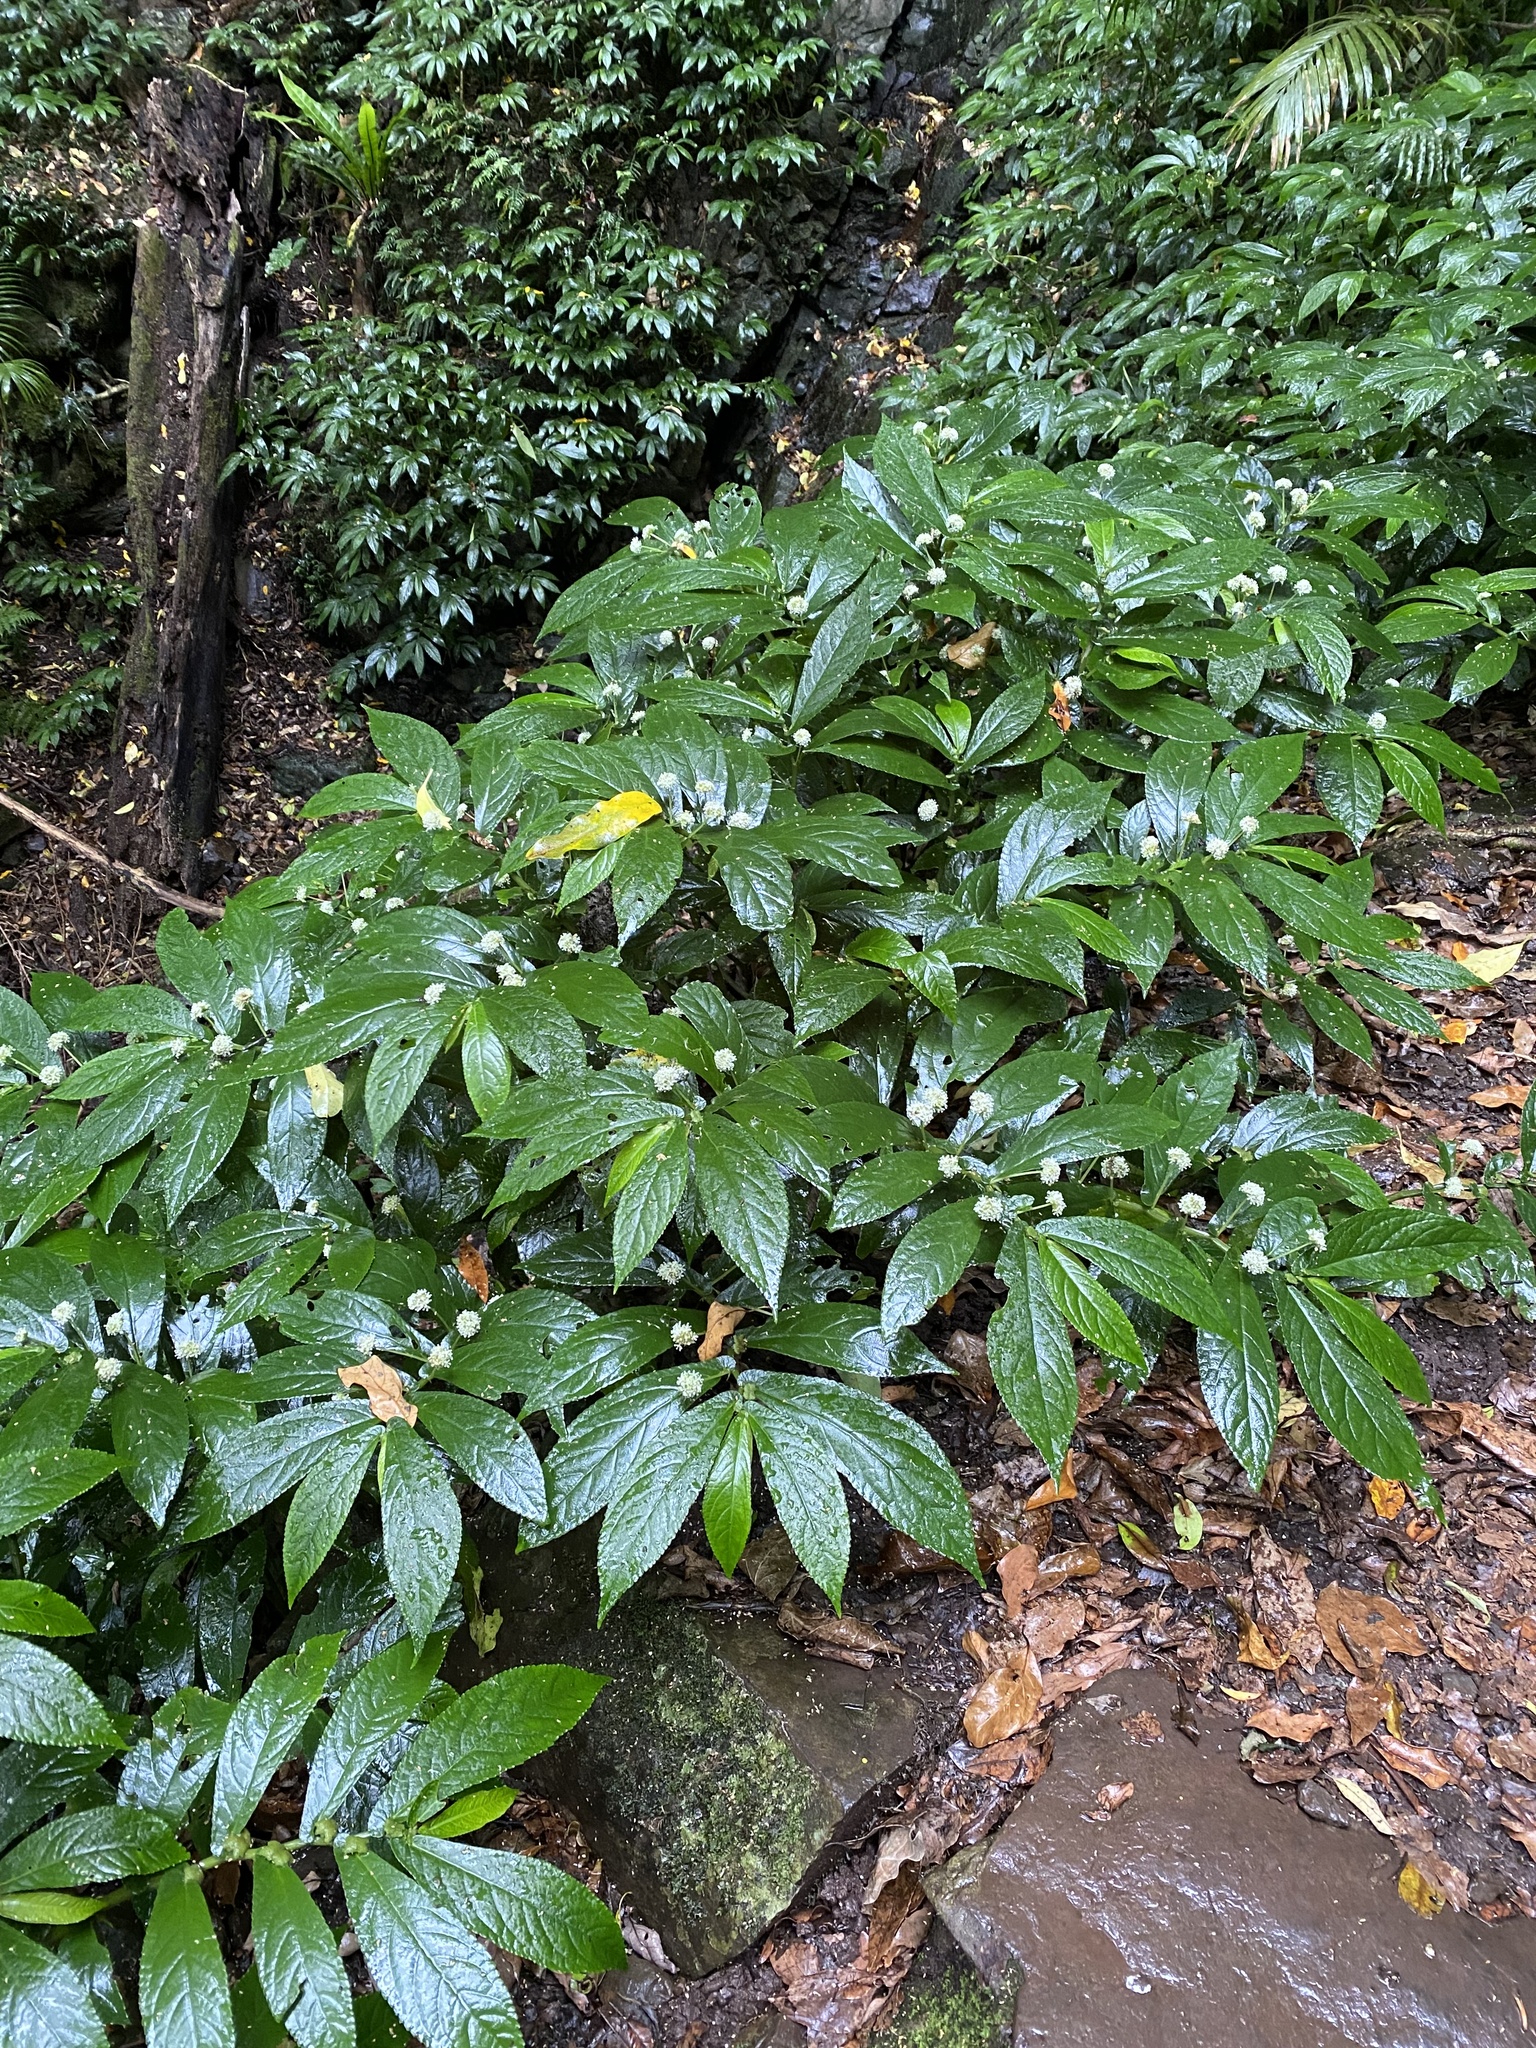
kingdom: Plantae
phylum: Tracheophyta
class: Magnoliopsida
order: Rosales
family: Urticaceae
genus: Elatostema
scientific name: Elatostema reticulatum
